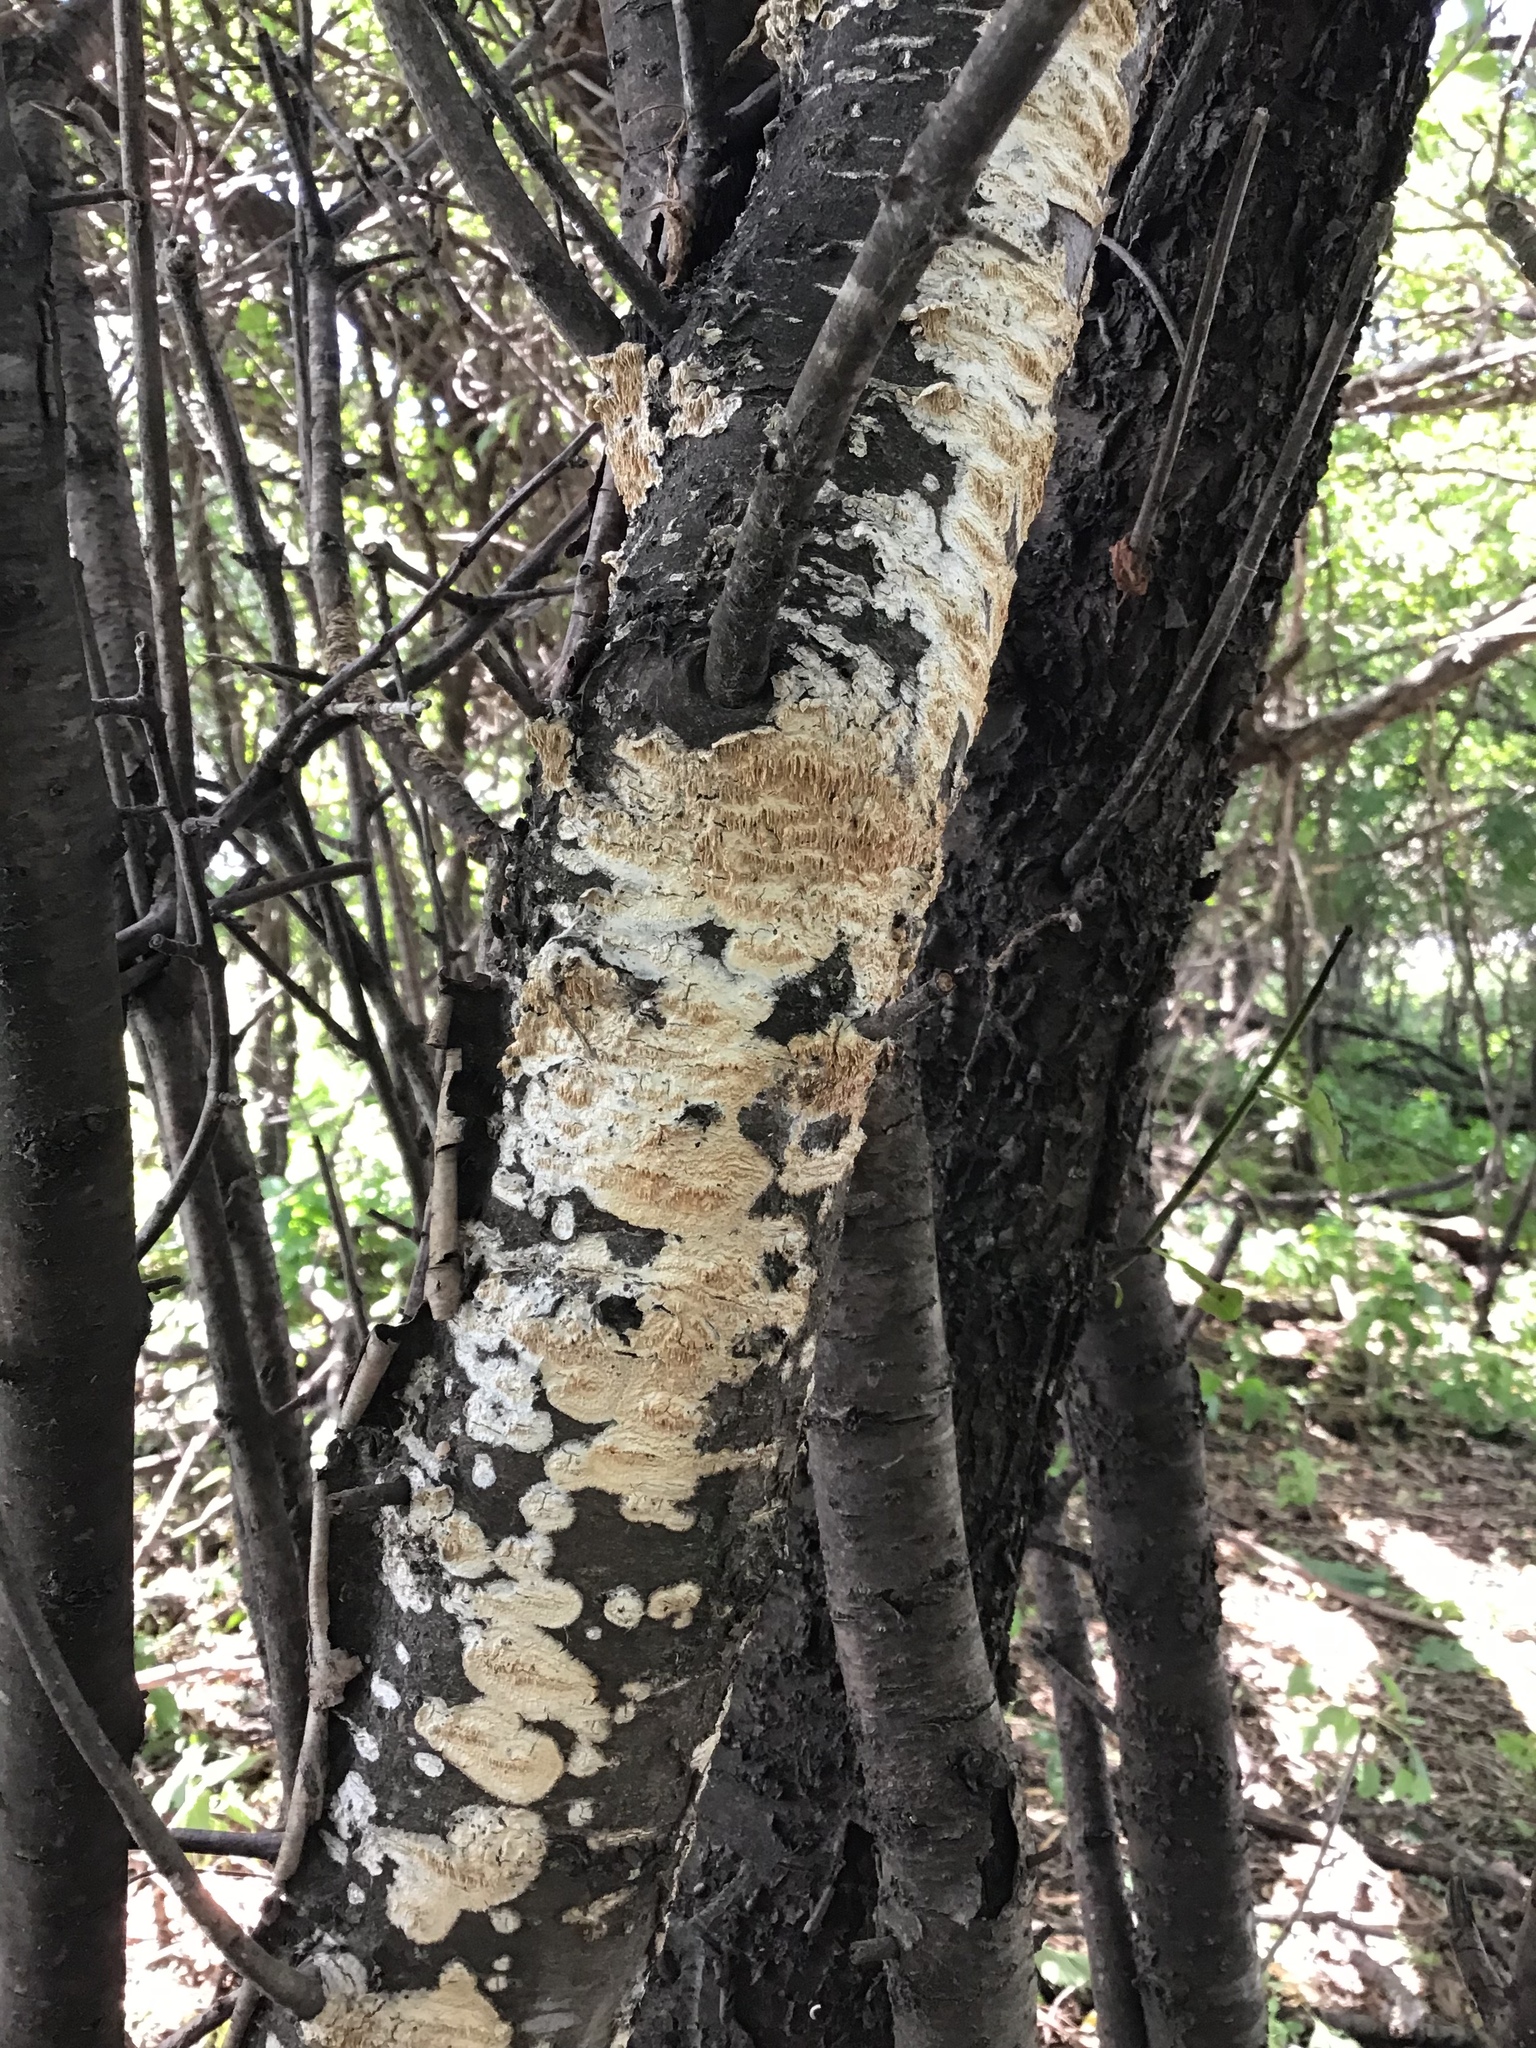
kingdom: Fungi
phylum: Basidiomycota
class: Agaricomycetes
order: Polyporales
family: Irpicaceae
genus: Irpex
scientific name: Irpex lacteus
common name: Milk-white toothed polypore
